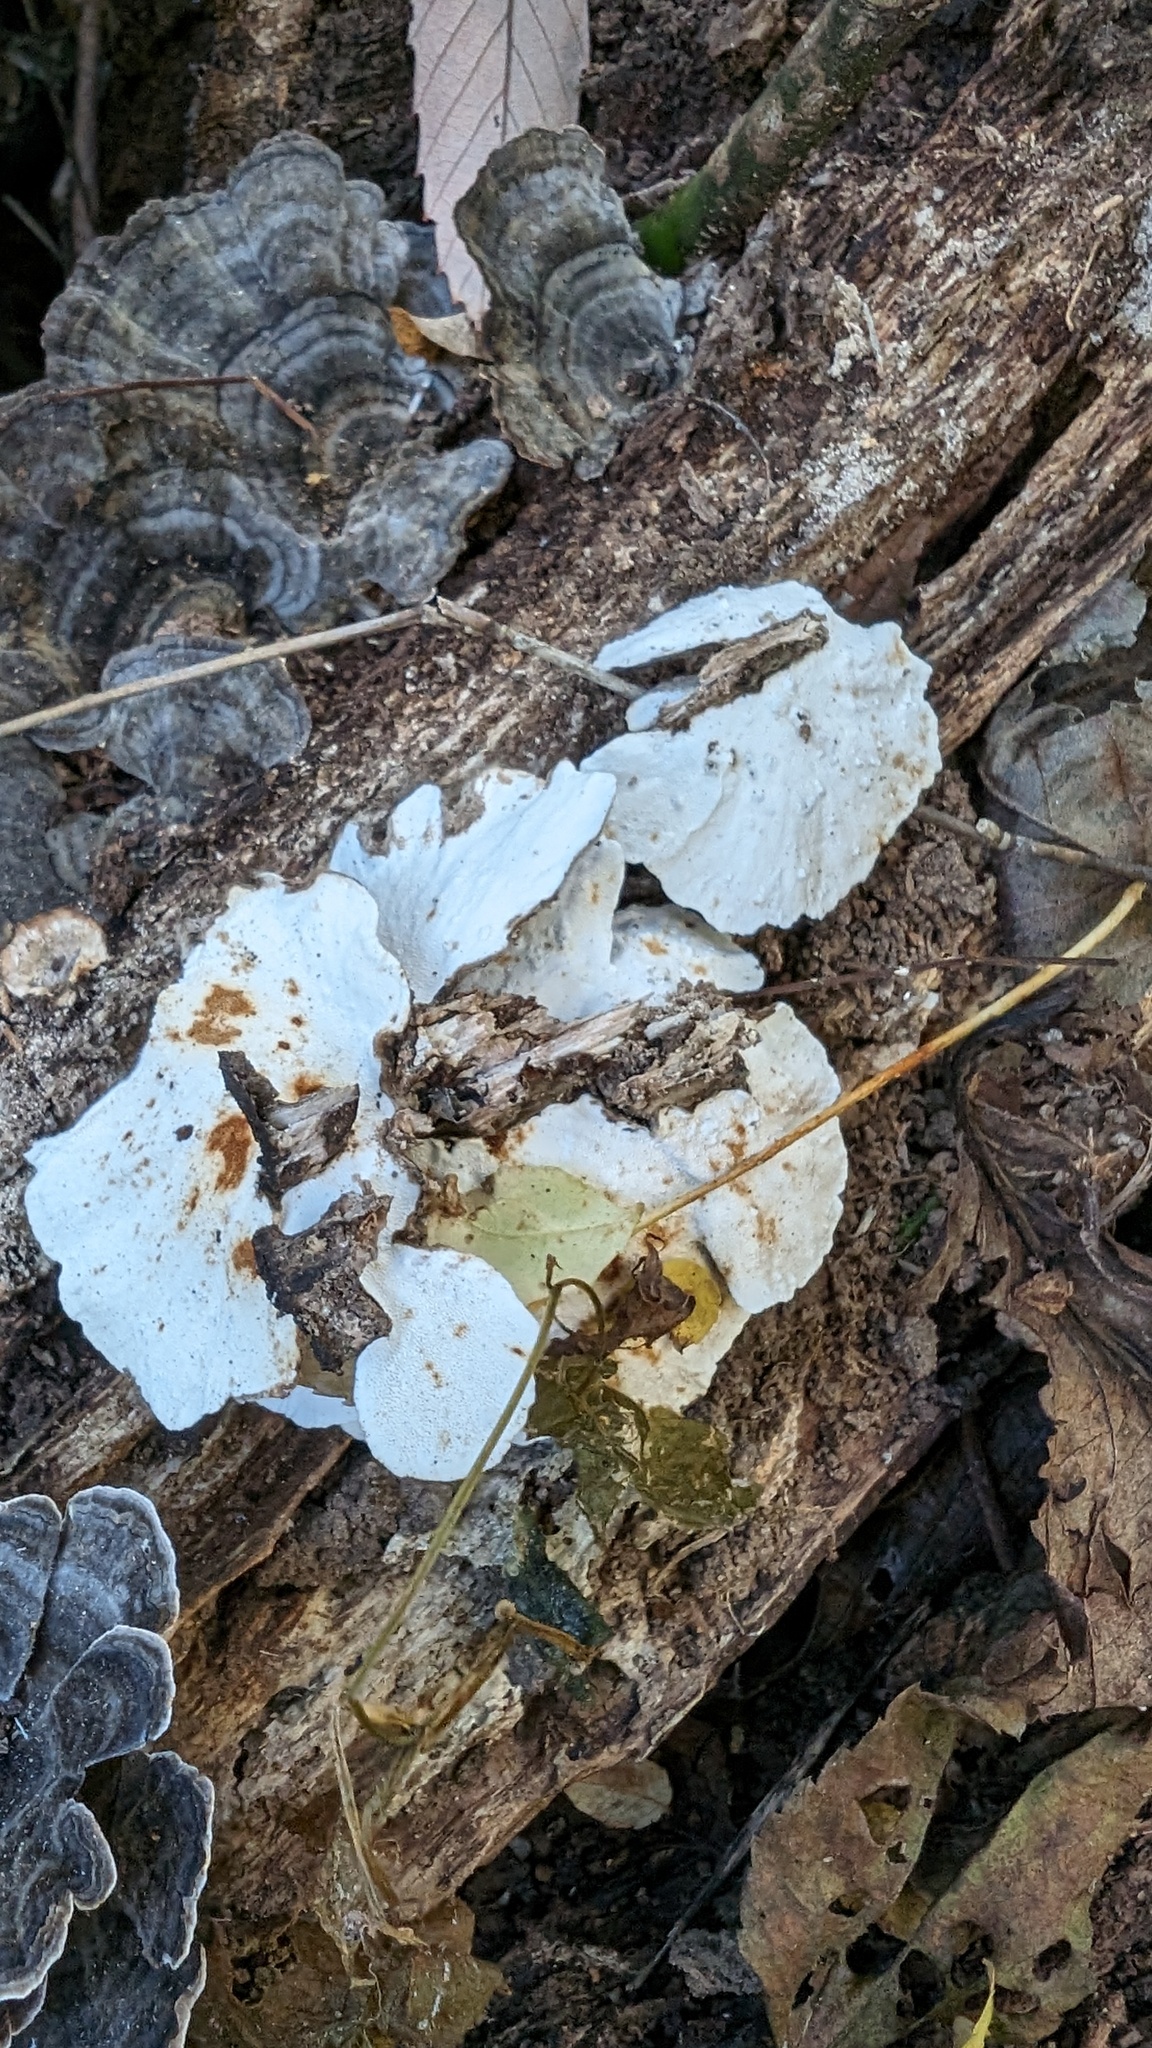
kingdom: Fungi
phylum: Basidiomycota
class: Agaricomycetes
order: Polyporales
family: Polyporaceae
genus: Trametes
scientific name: Trametes versicolor
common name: Turkeytail
